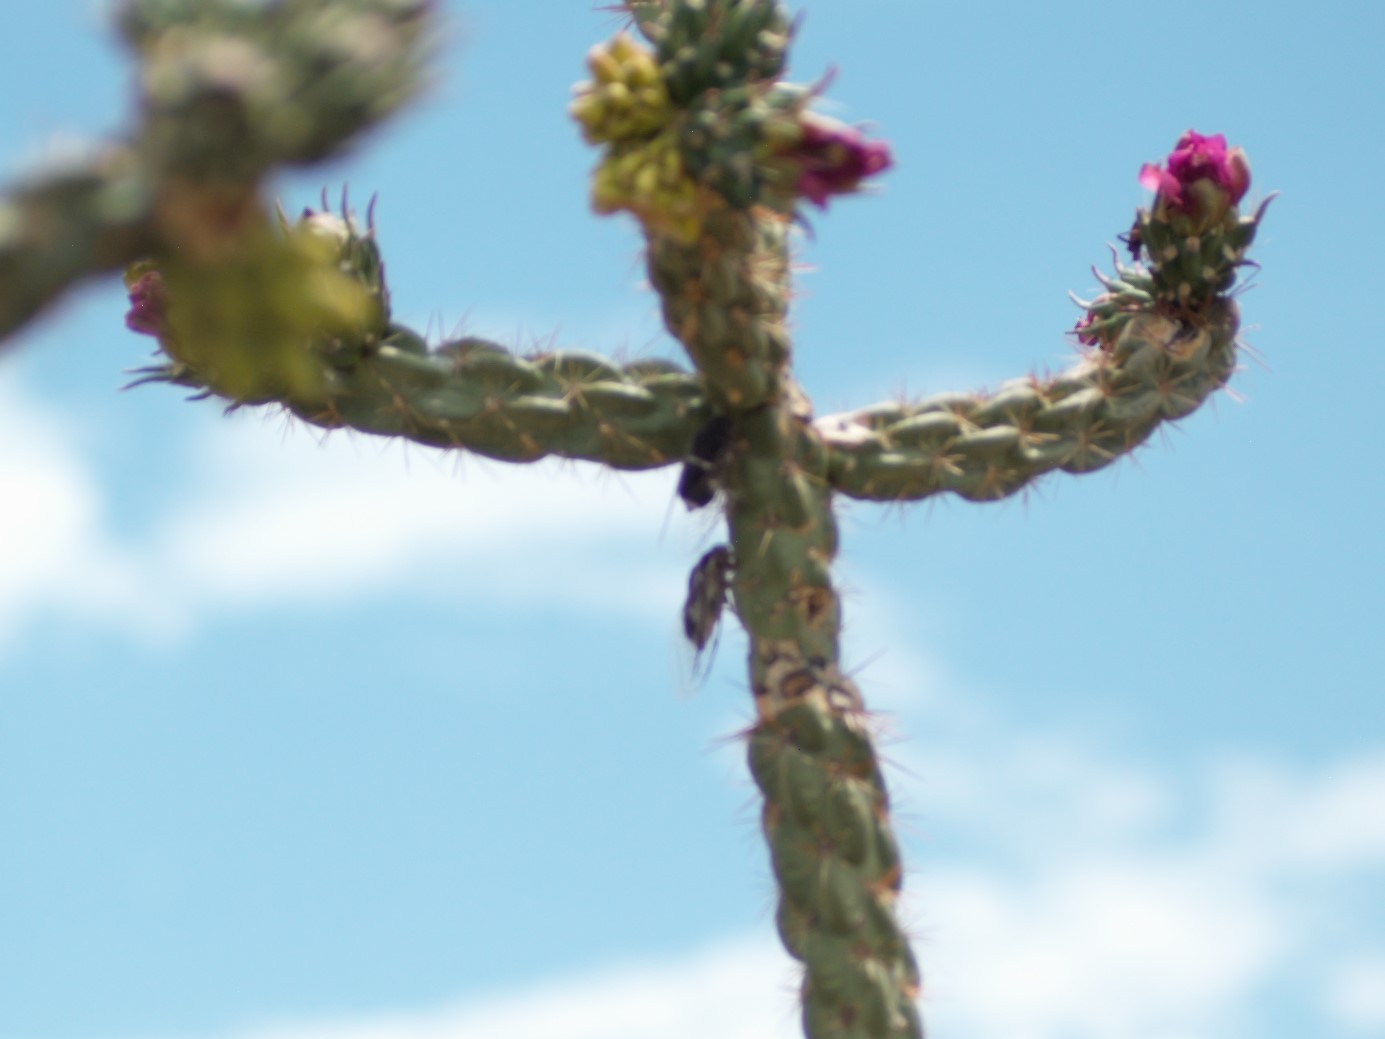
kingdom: Animalia
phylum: Arthropoda
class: Insecta
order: Hemiptera
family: Cicadidae
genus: Cacama
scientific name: Cacama valvata
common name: Cactus dodger
